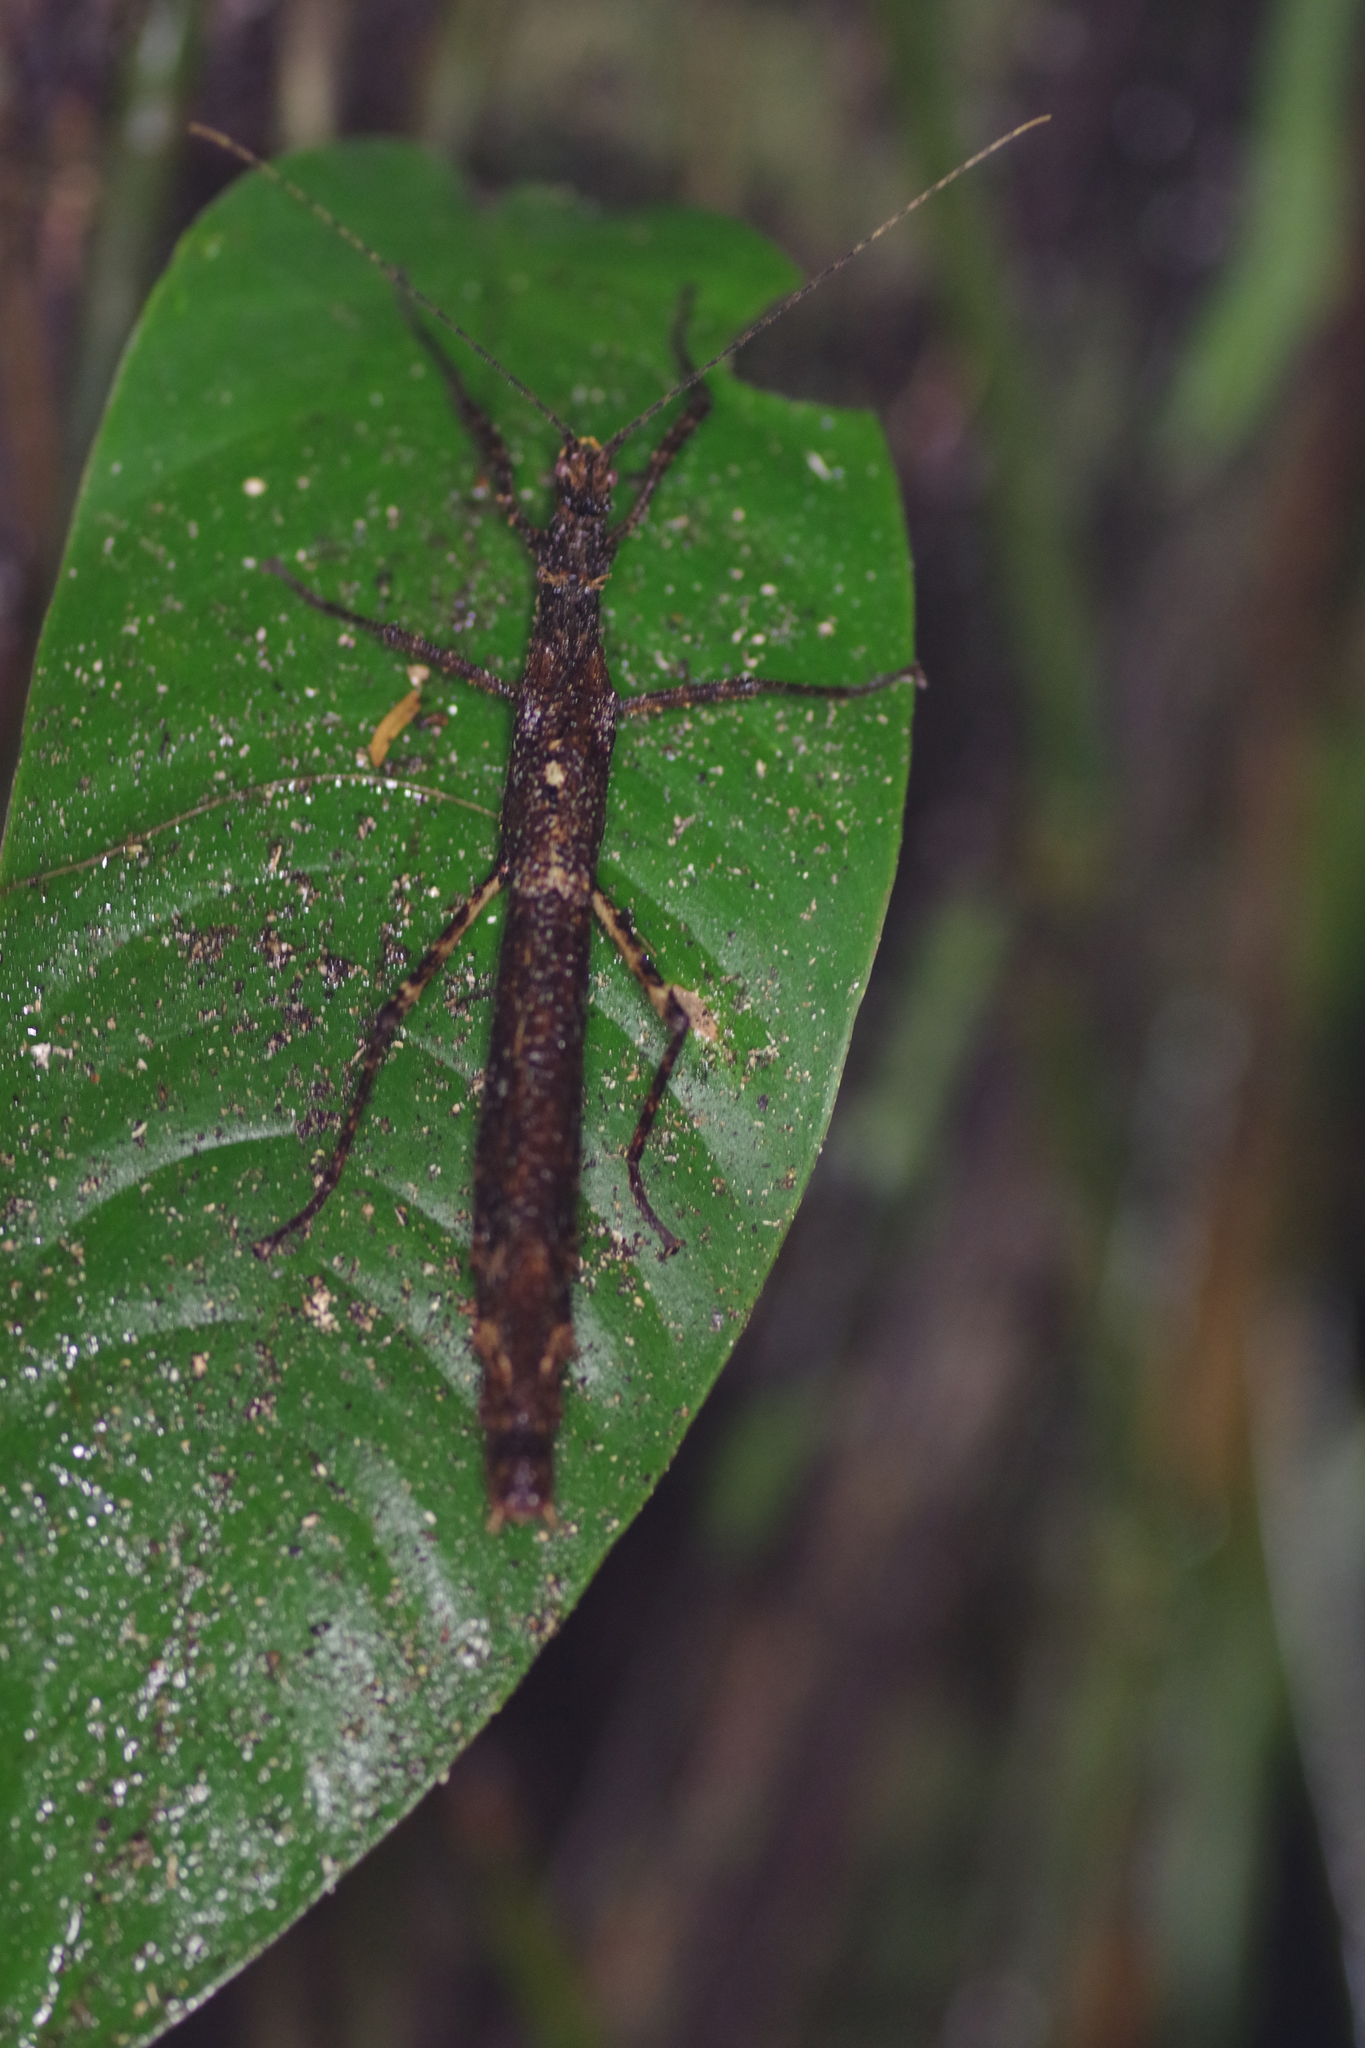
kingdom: Animalia
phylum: Arthropoda
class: Insecta
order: Phasmida
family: Pseudophasmatidae
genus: Xylospinodes
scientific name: Xylospinodes jensjohannseni
